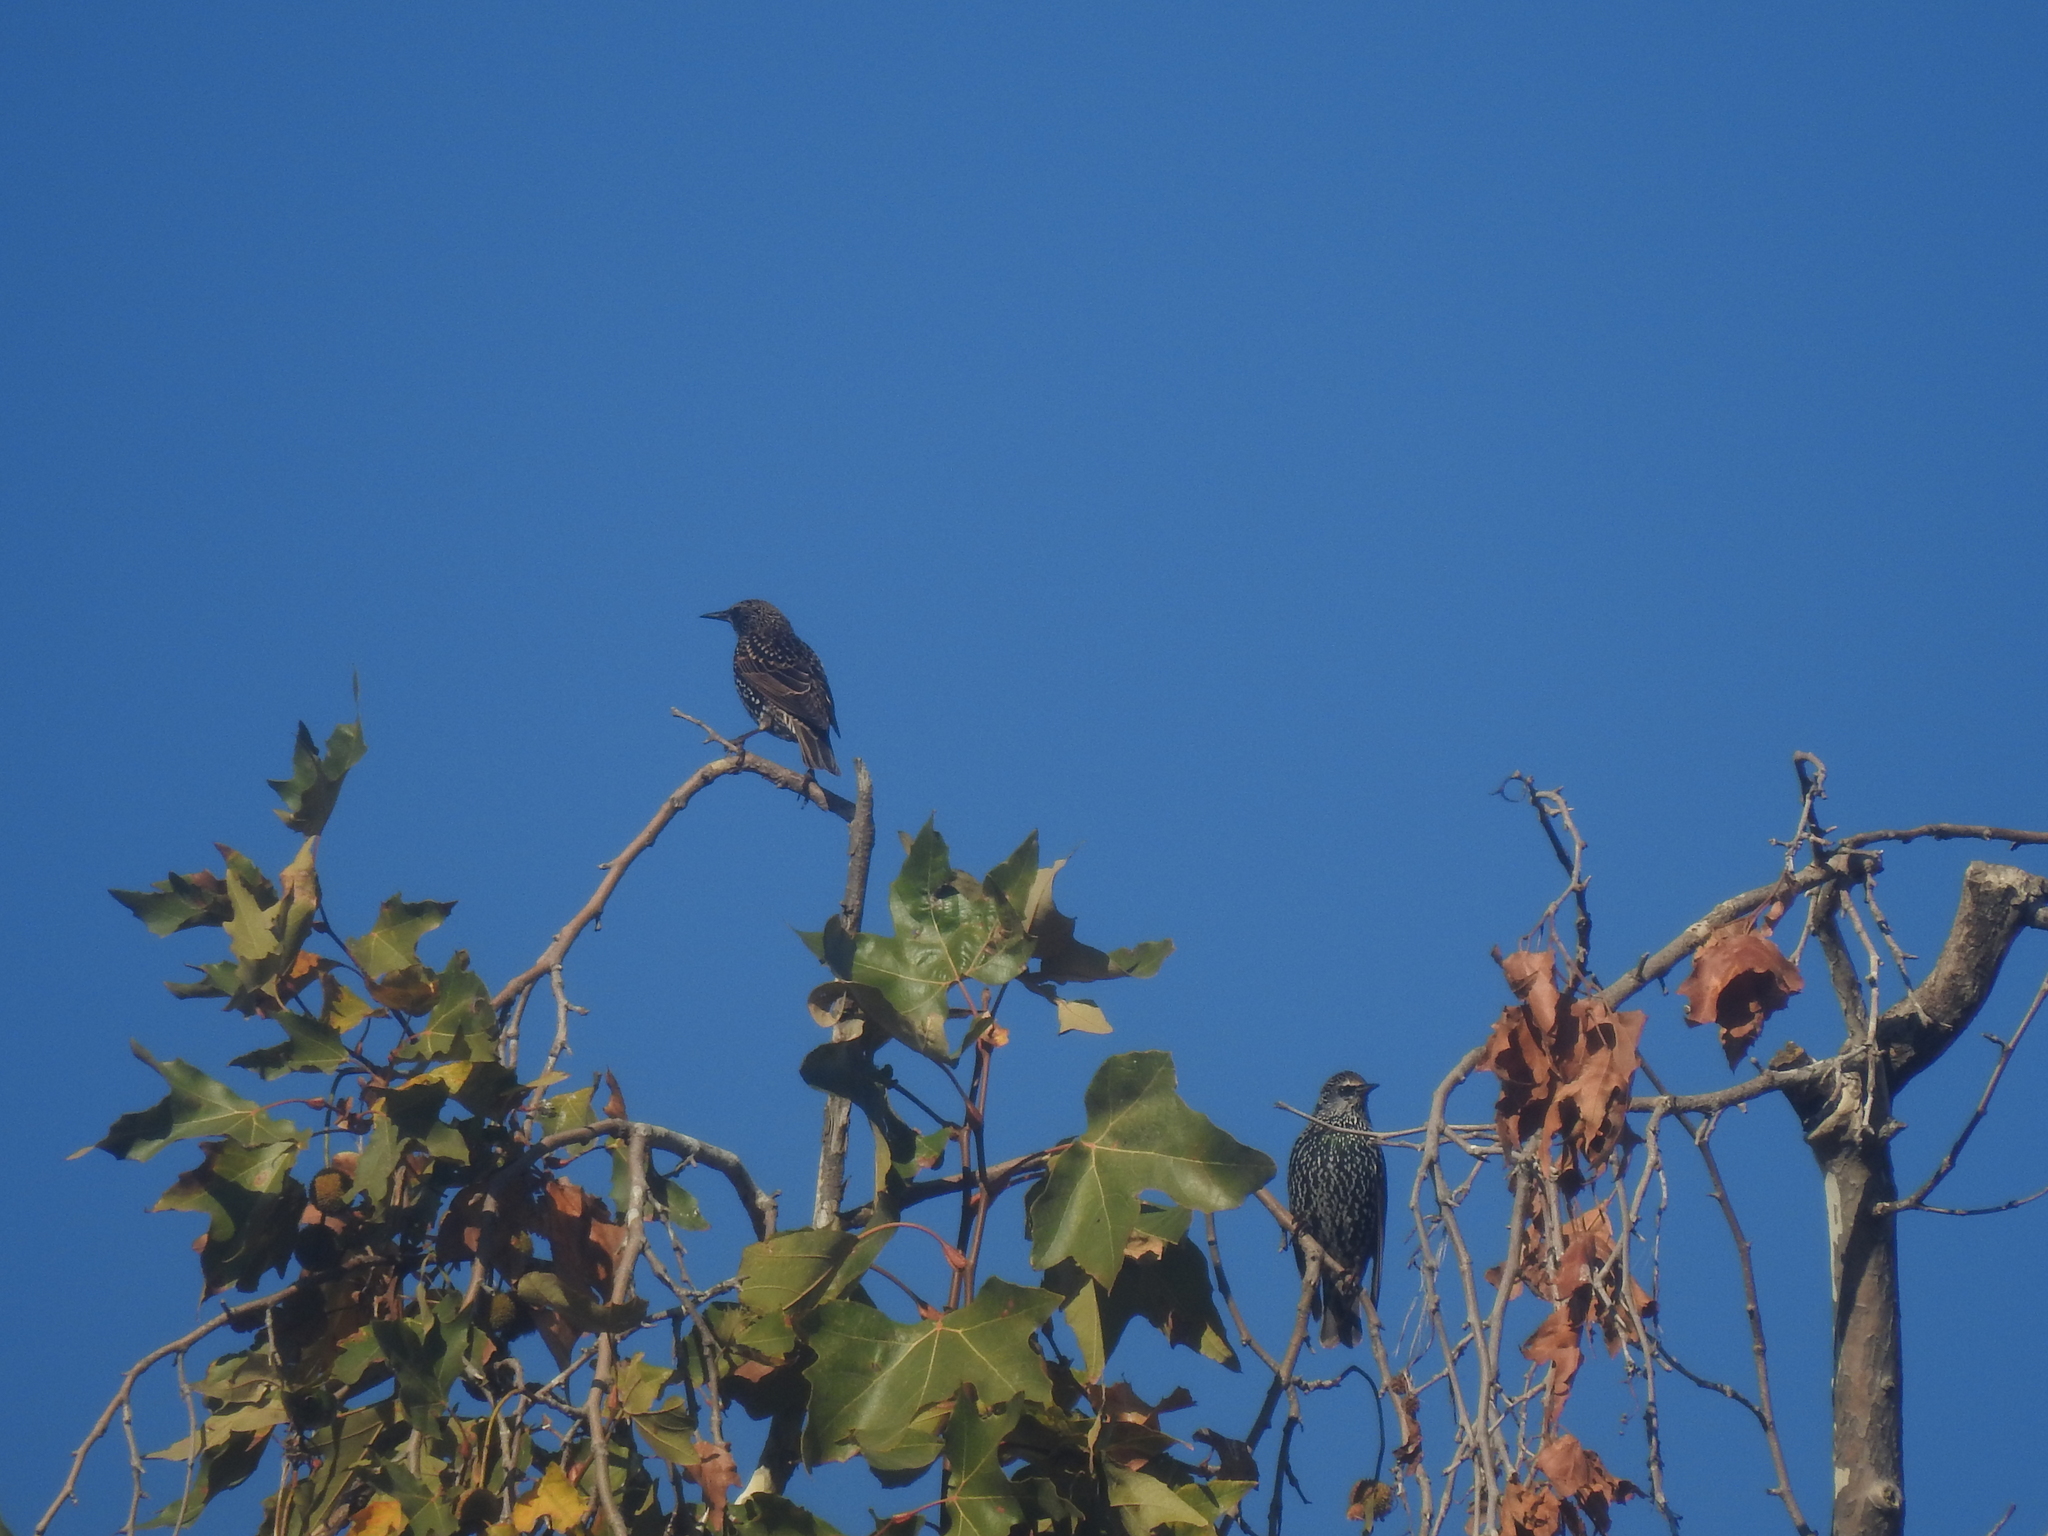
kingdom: Animalia
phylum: Chordata
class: Aves
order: Passeriformes
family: Sturnidae
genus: Sturnus
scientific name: Sturnus vulgaris
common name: Common starling
